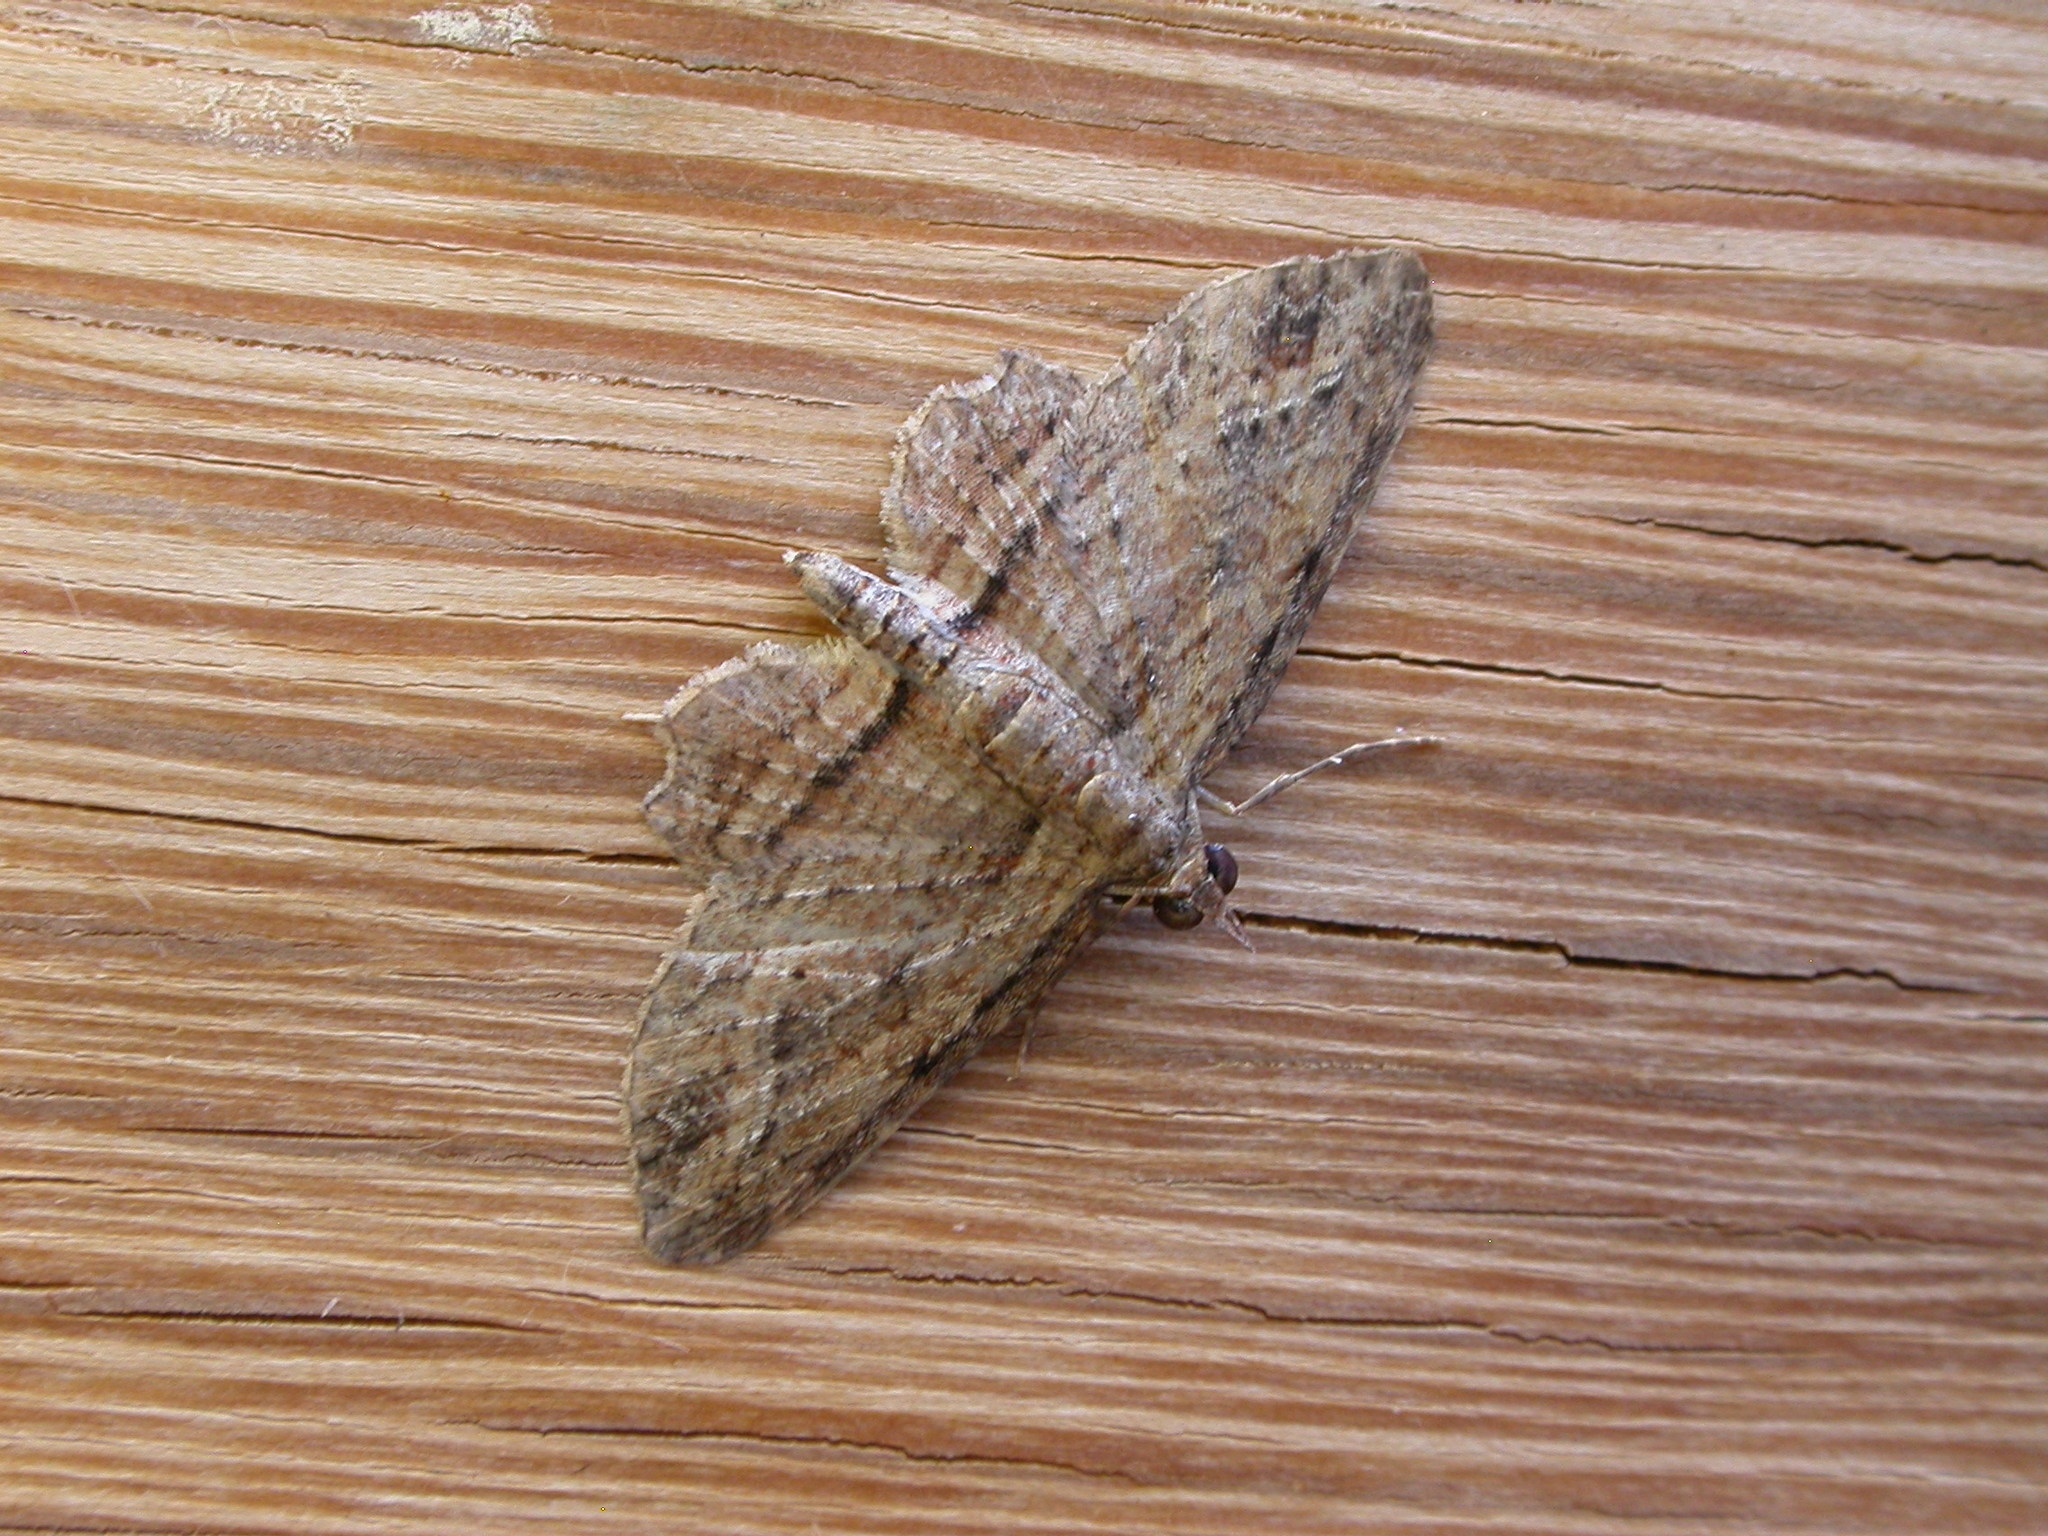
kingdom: Animalia
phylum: Arthropoda
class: Insecta
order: Lepidoptera
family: Geometridae
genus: Chloroclystis
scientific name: Chloroclystis filata
